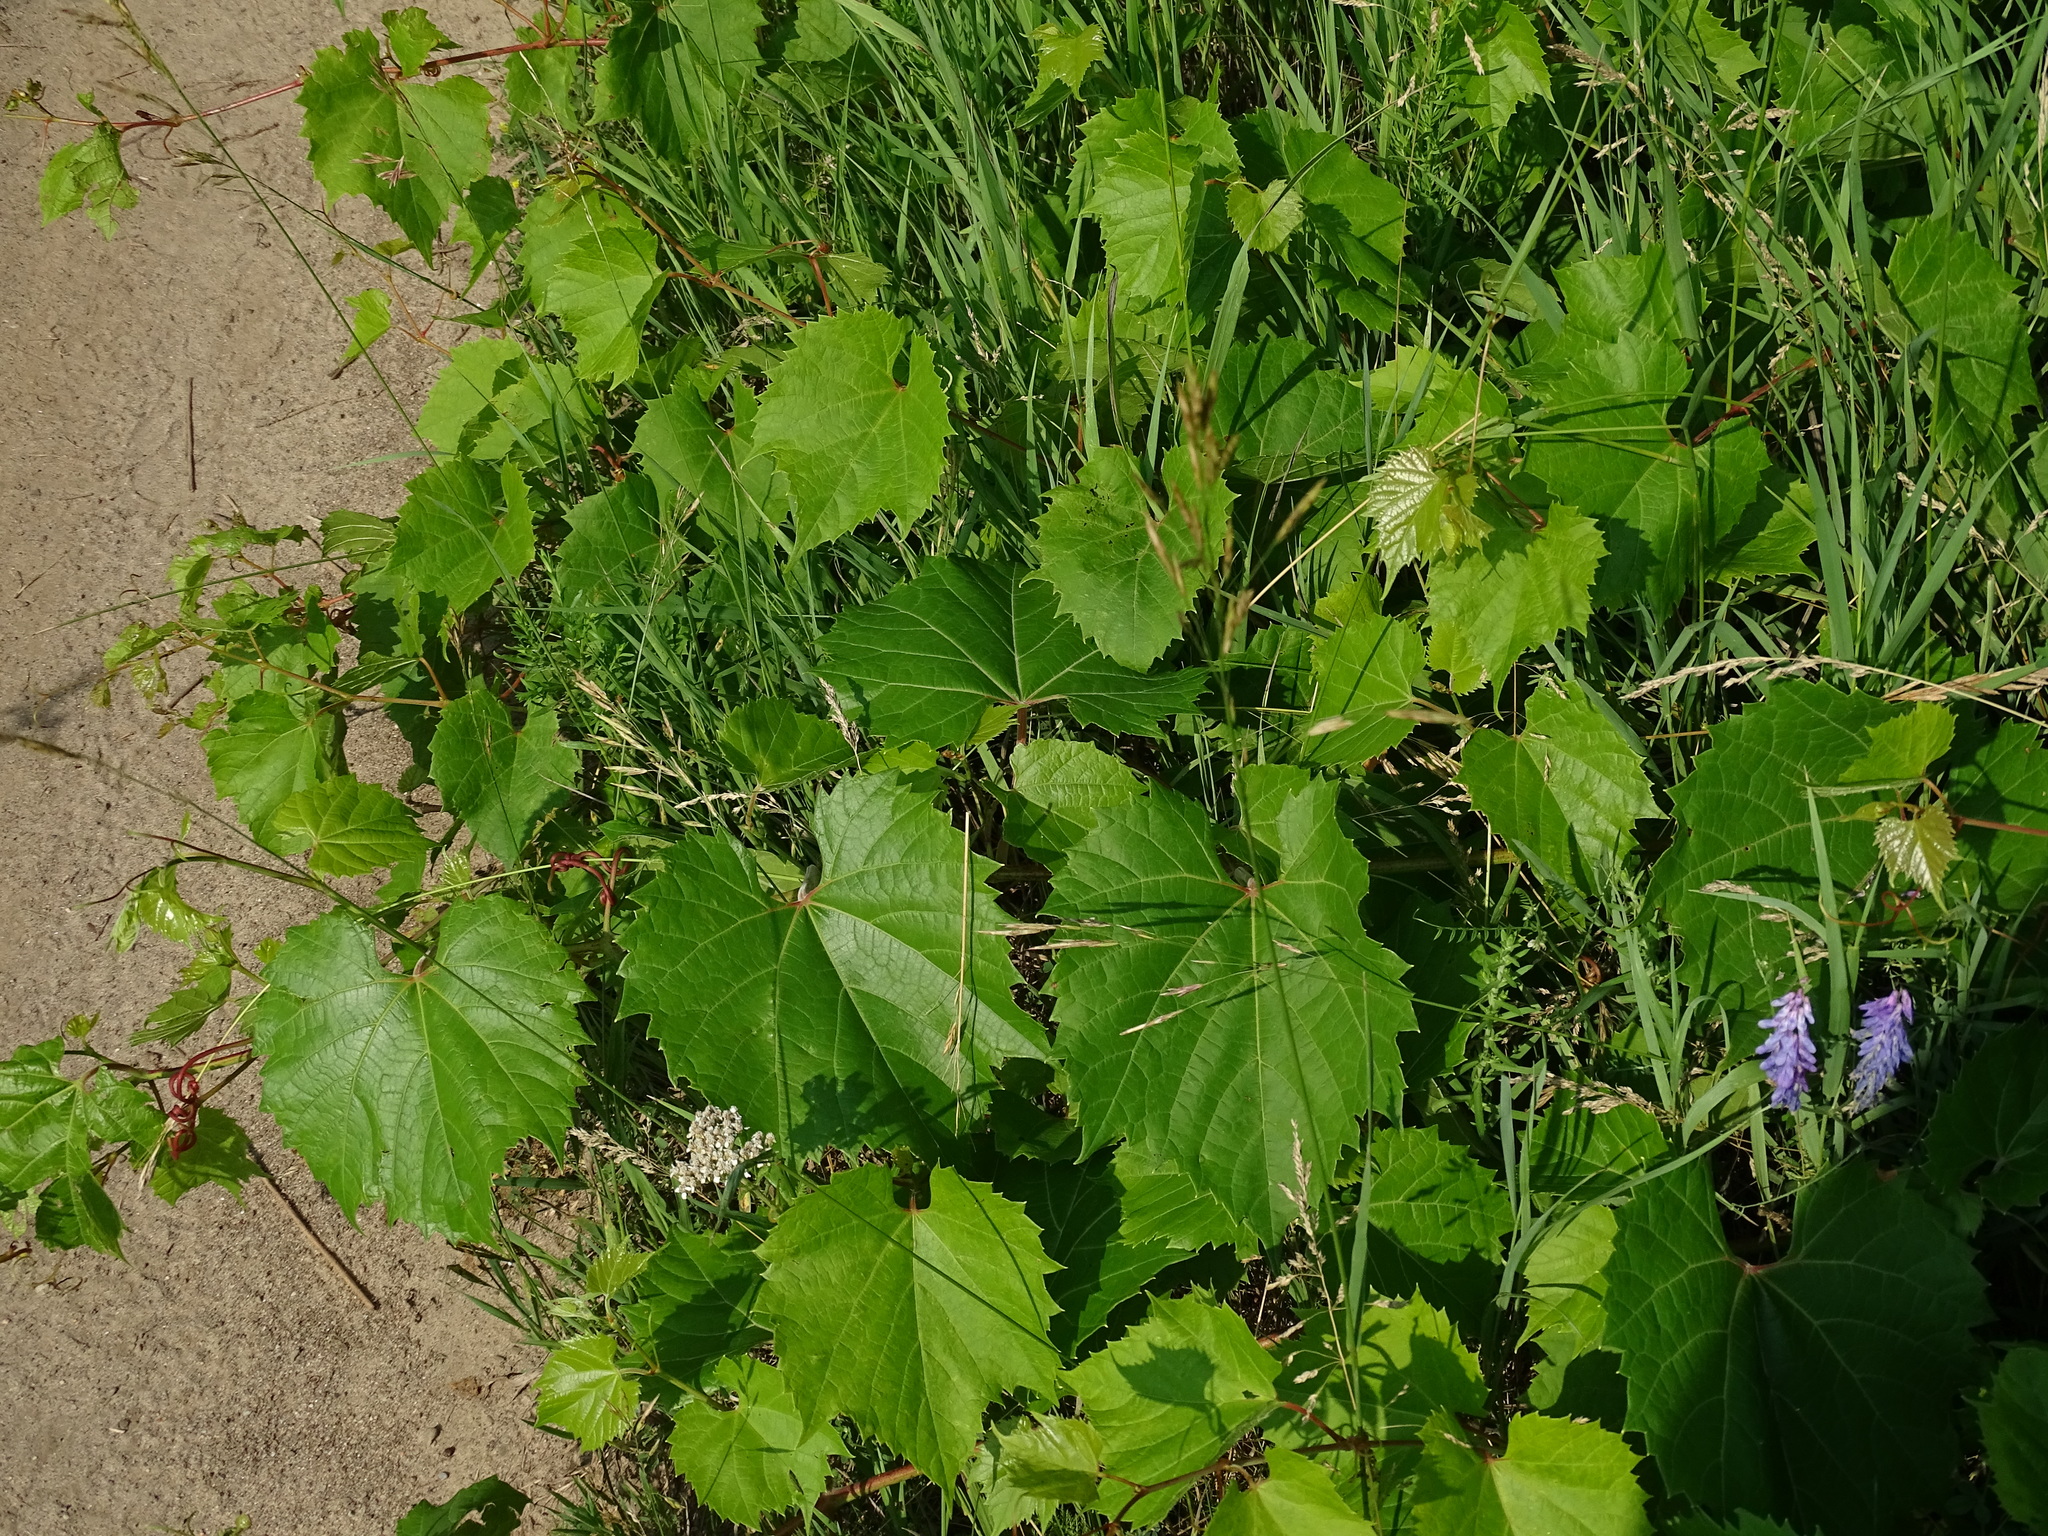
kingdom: Plantae
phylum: Tracheophyta
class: Magnoliopsida
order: Vitales
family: Vitaceae
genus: Vitis
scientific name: Vitis riparia
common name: Frost grape
